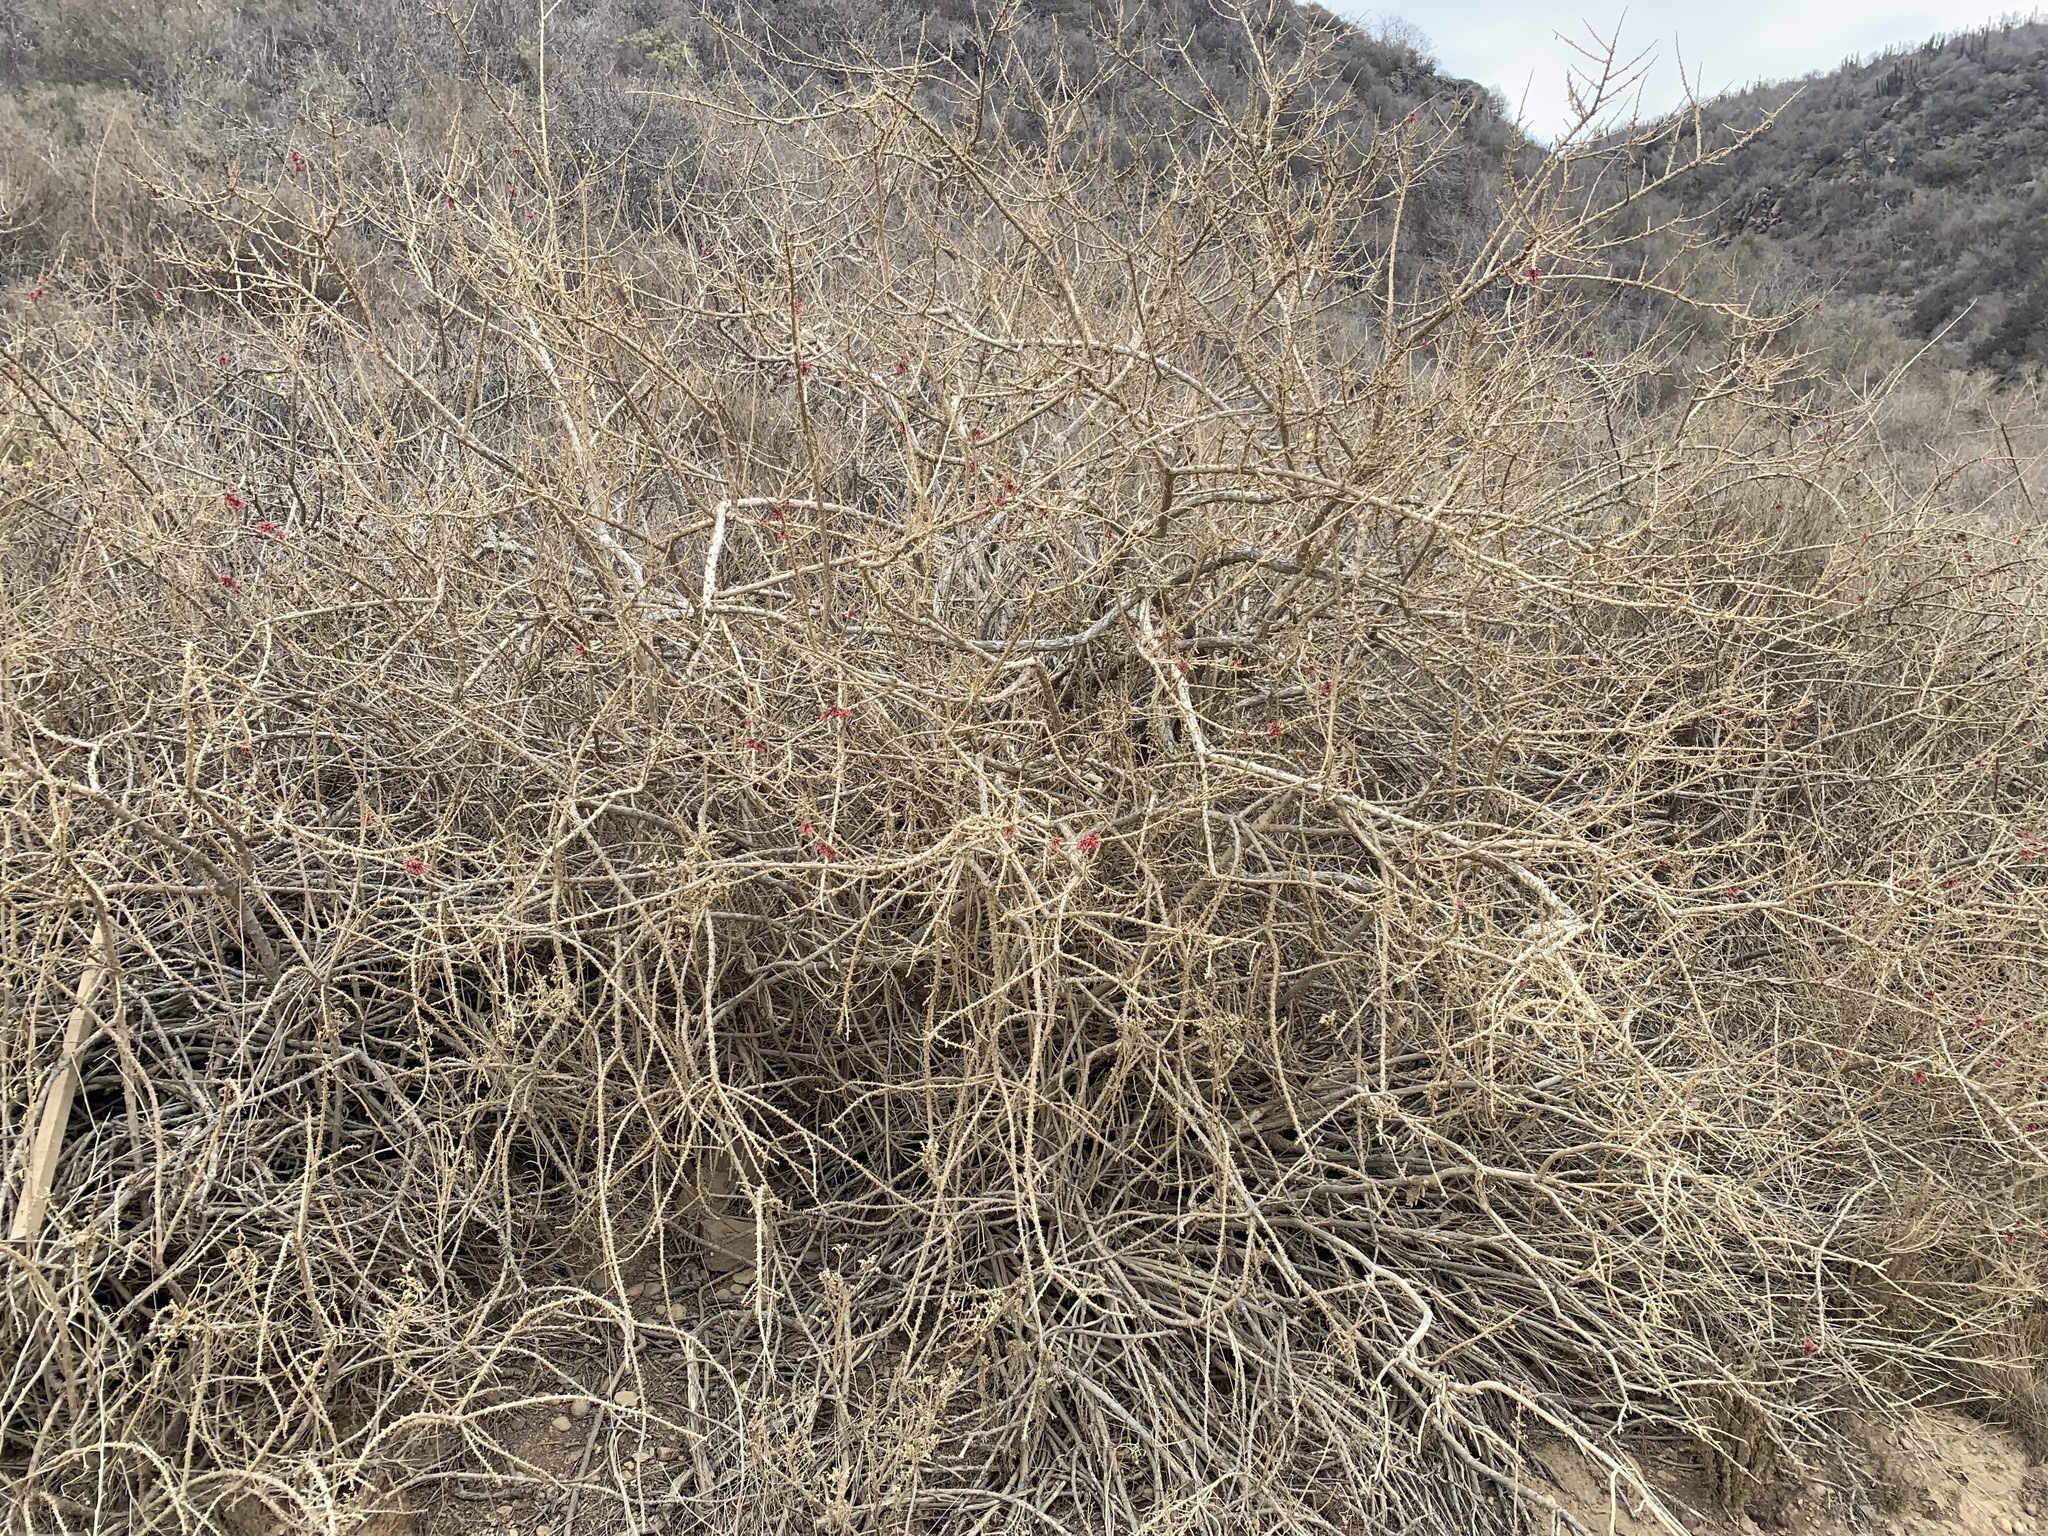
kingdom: Plantae
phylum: Tracheophyta
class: Magnoliopsida
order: Myrtales
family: Onagraceae
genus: Fuchsia
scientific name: Fuchsia lycioides
